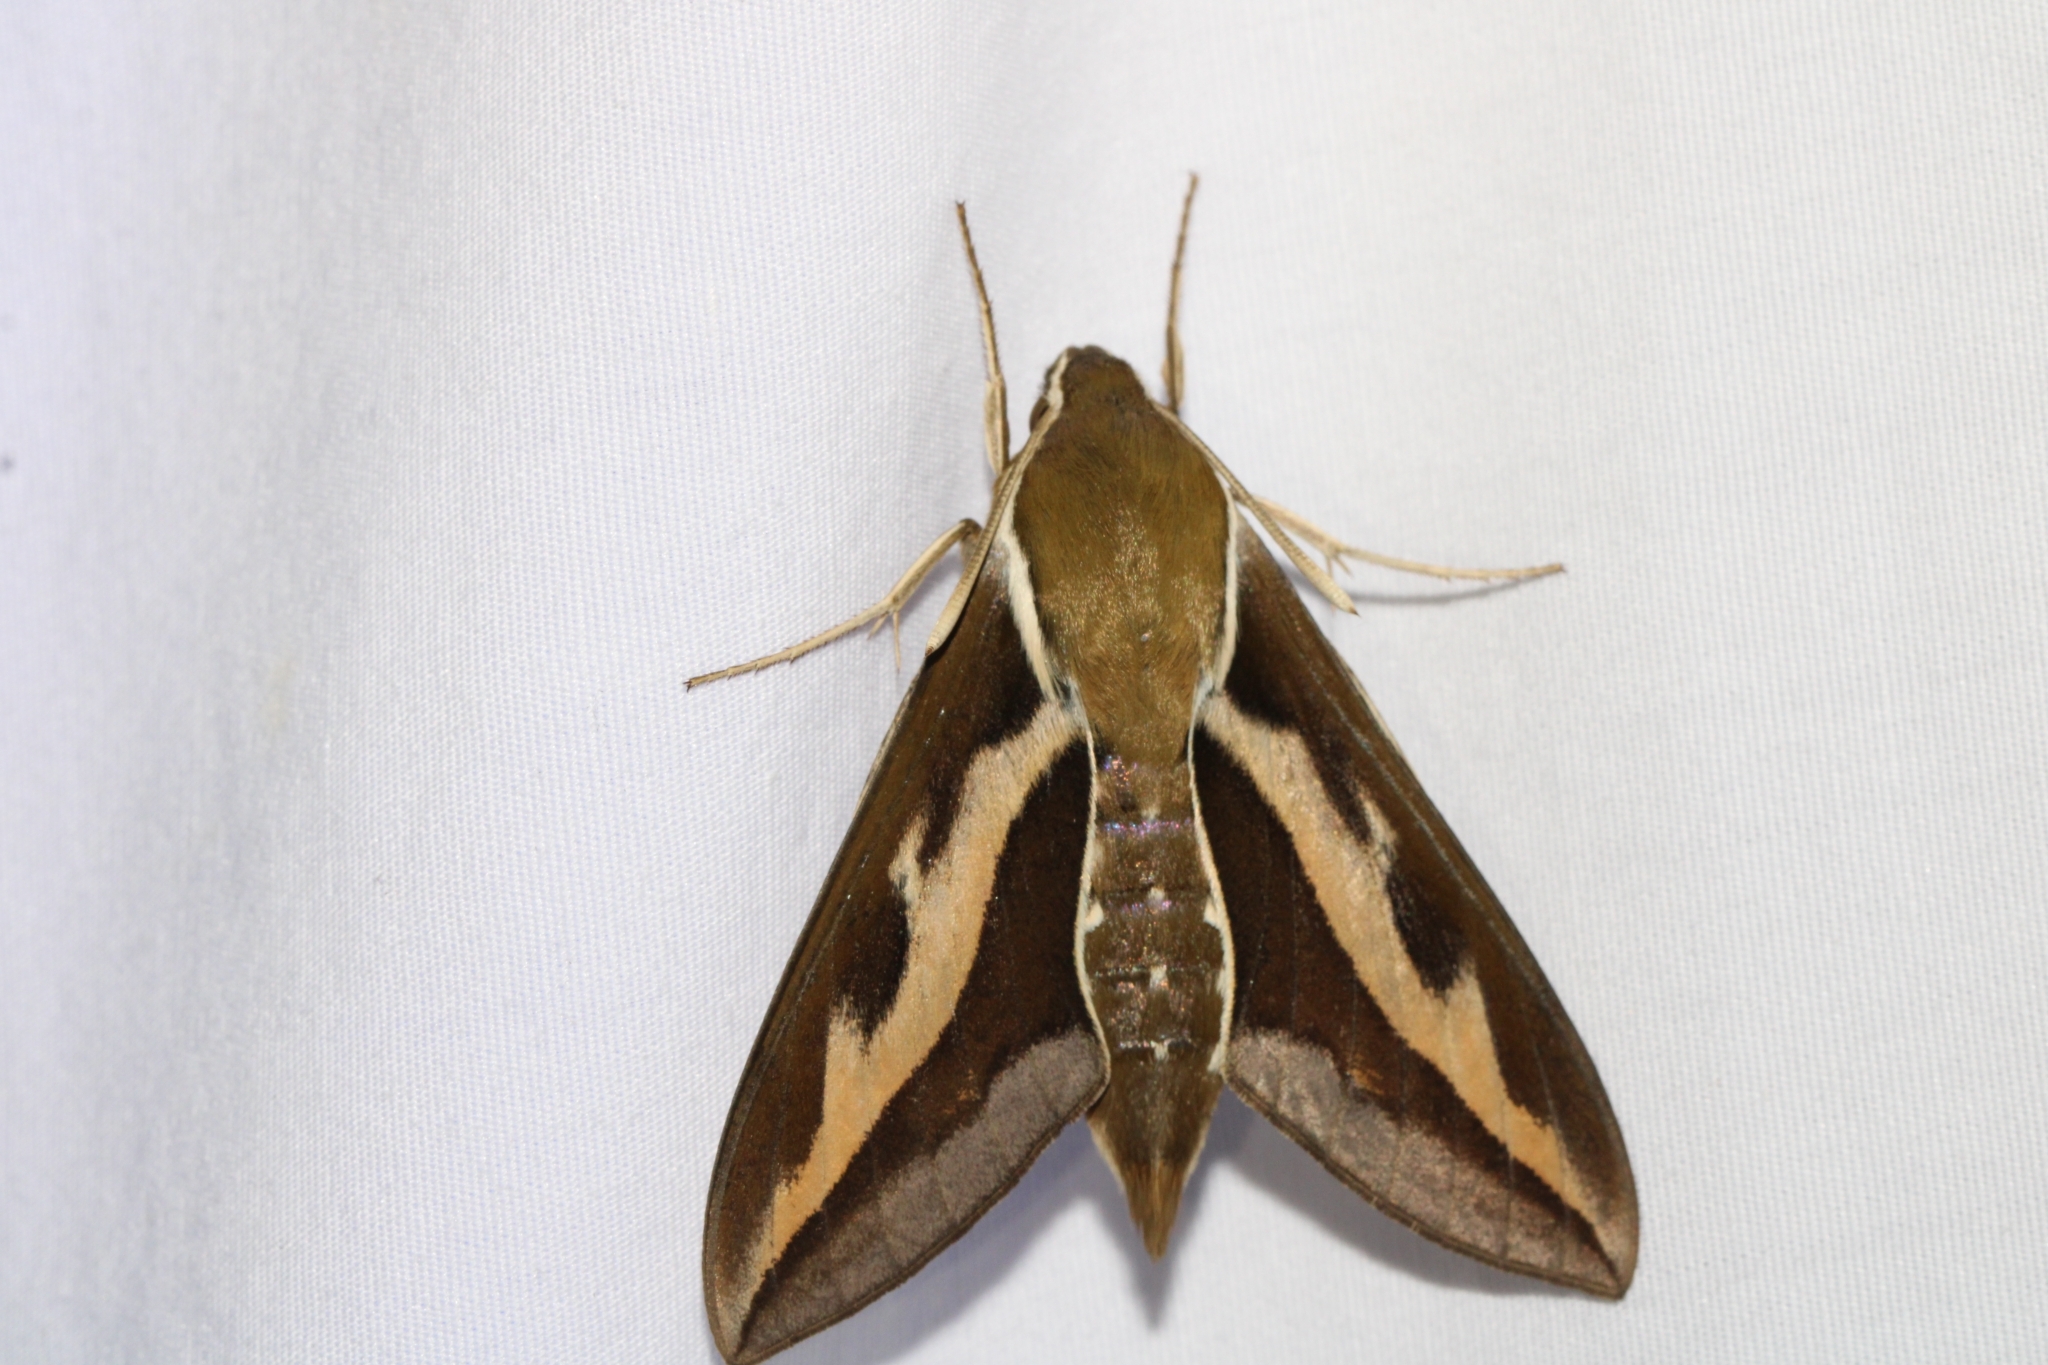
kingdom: Animalia
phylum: Arthropoda
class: Insecta
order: Lepidoptera
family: Sphingidae
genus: Hyles
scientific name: Hyles gallii
